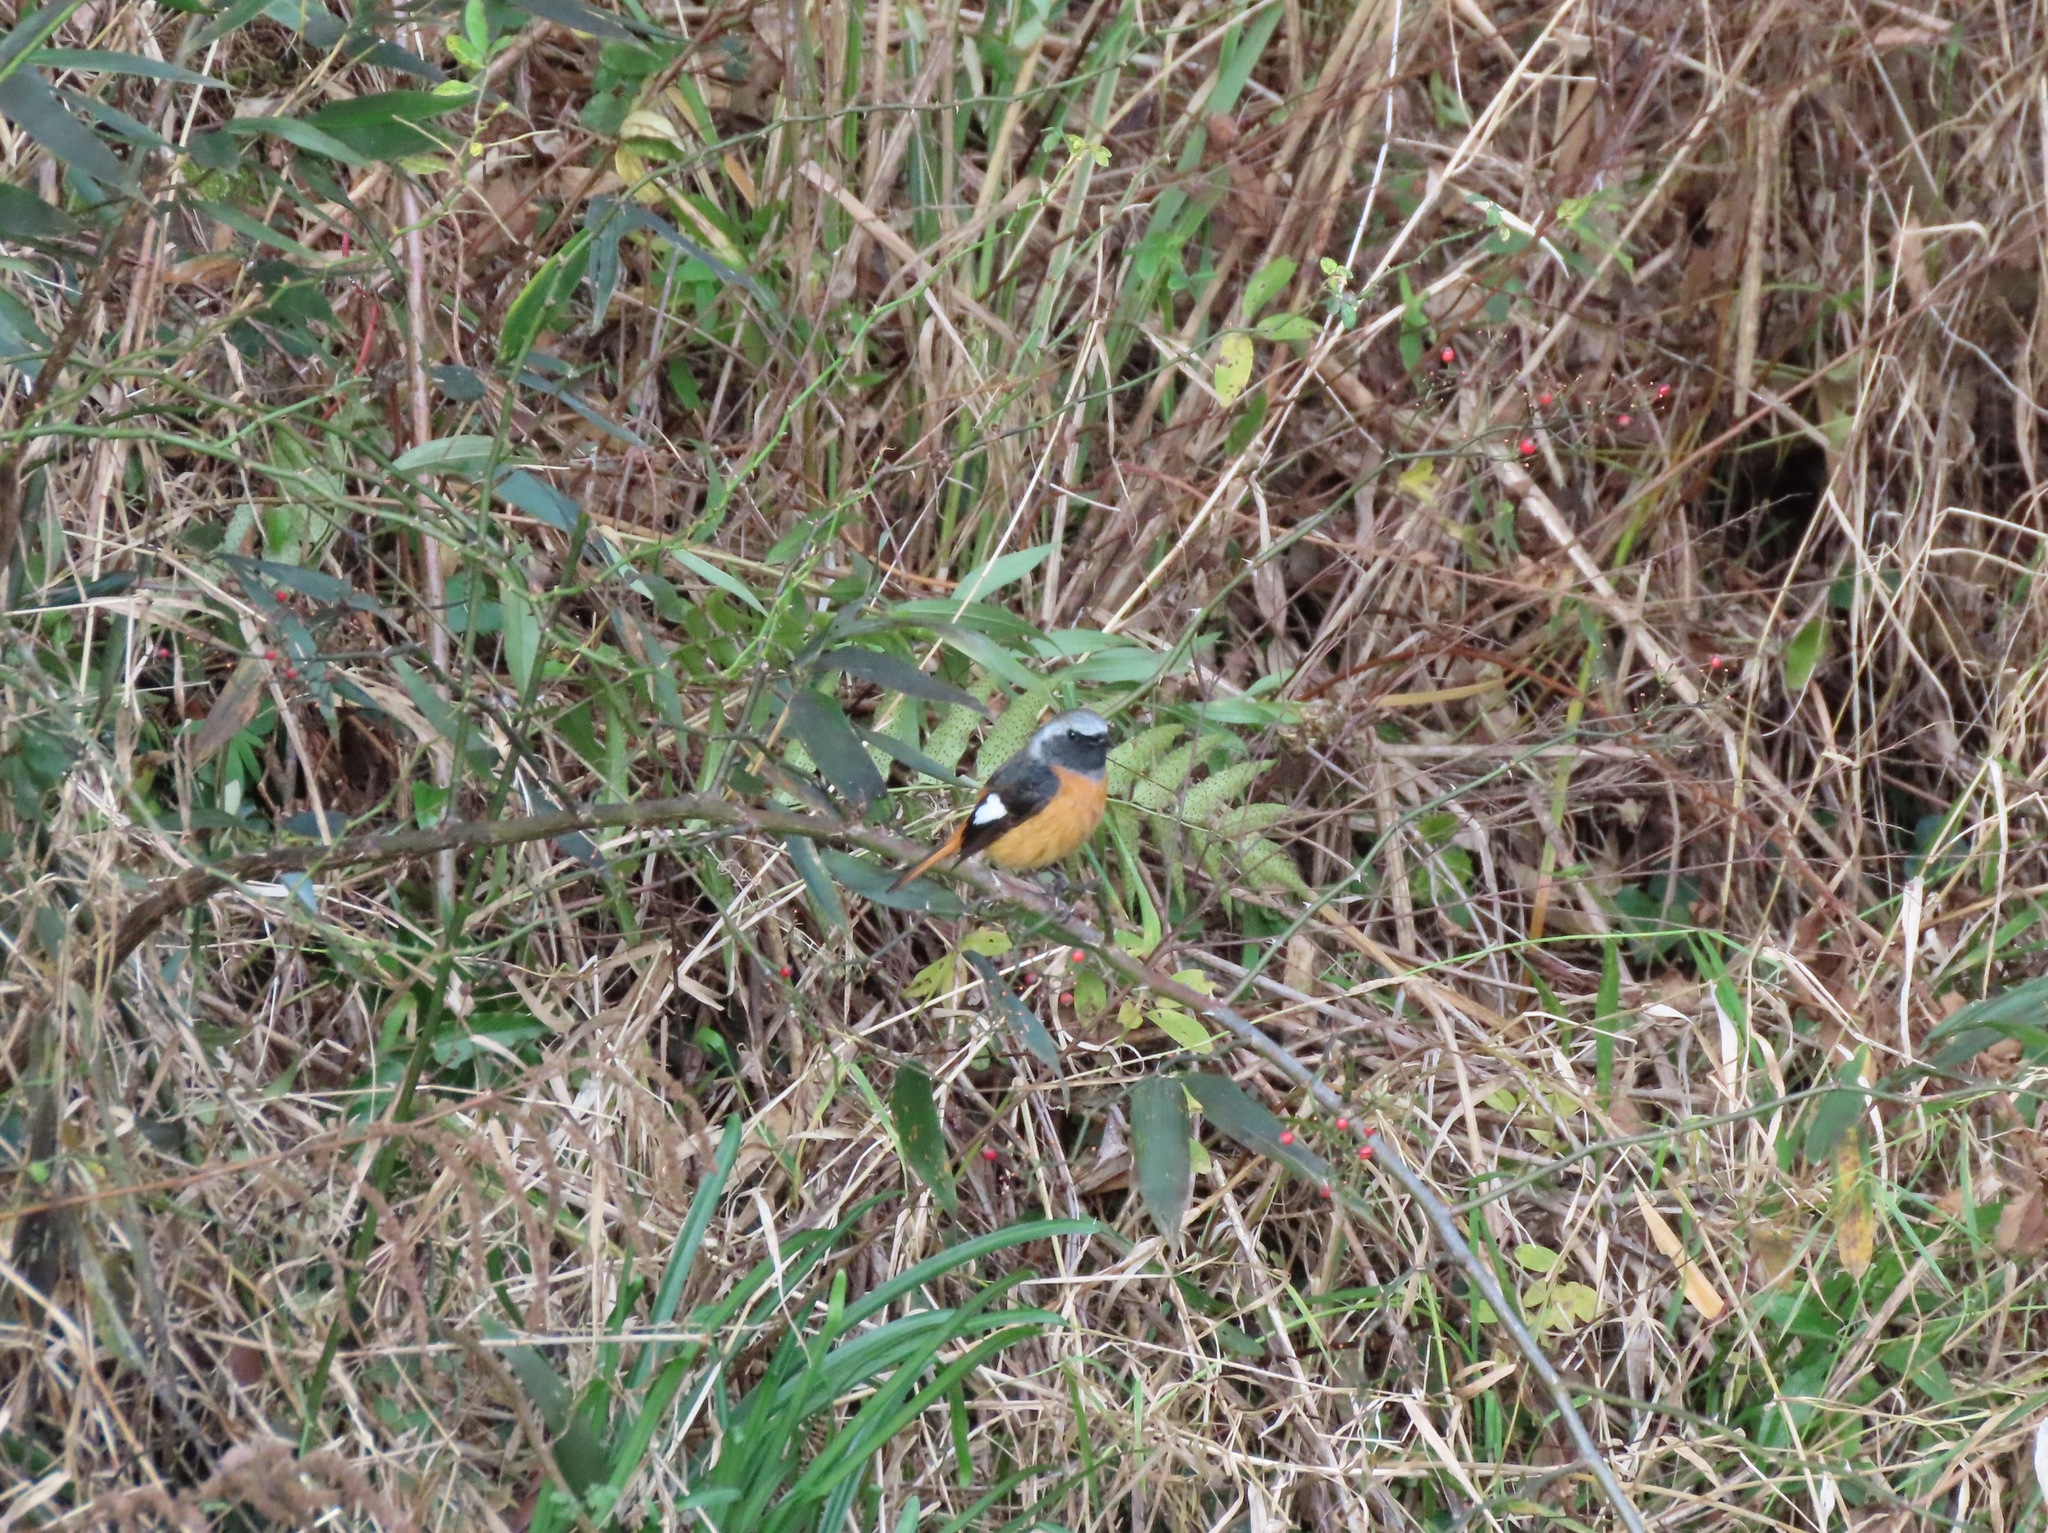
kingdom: Animalia
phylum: Chordata
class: Aves
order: Passeriformes
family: Muscicapidae
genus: Phoenicurus
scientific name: Phoenicurus auroreus
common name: Daurian redstart
